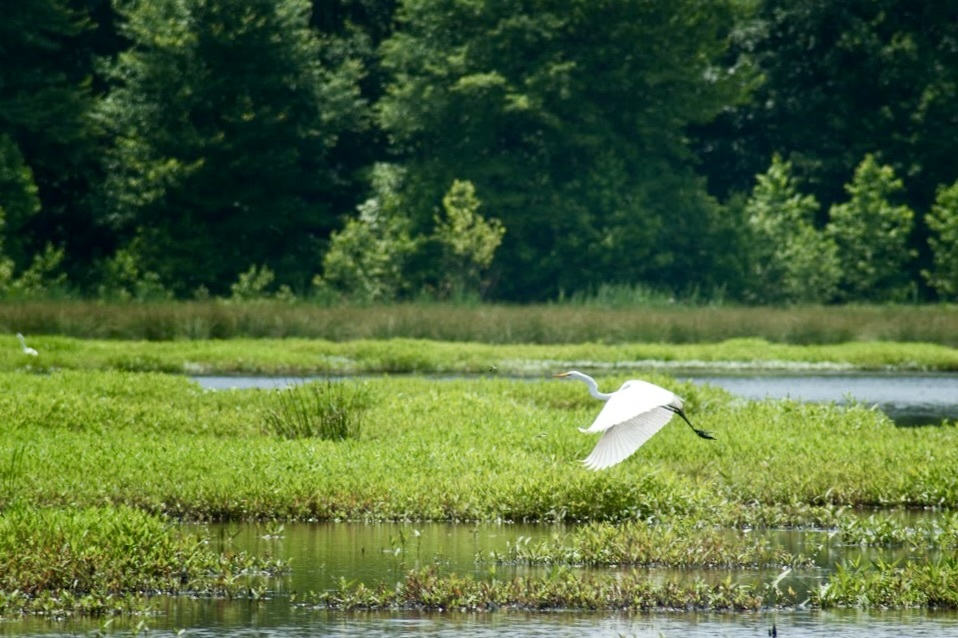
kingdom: Animalia
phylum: Chordata
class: Aves
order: Pelecaniformes
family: Ardeidae
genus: Ardea
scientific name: Ardea alba
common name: Great egret
